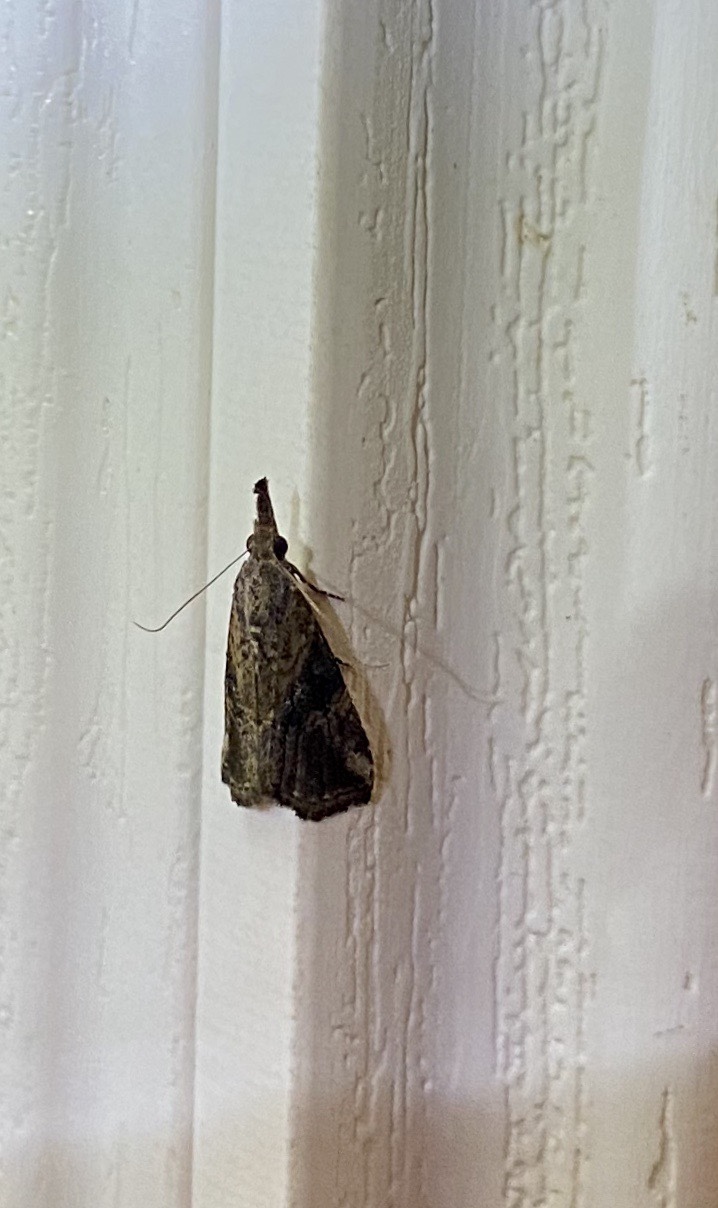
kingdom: Animalia
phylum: Arthropoda
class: Insecta
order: Lepidoptera
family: Erebidae
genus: Hypena
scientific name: Hypena minualis
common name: Sooty snout
